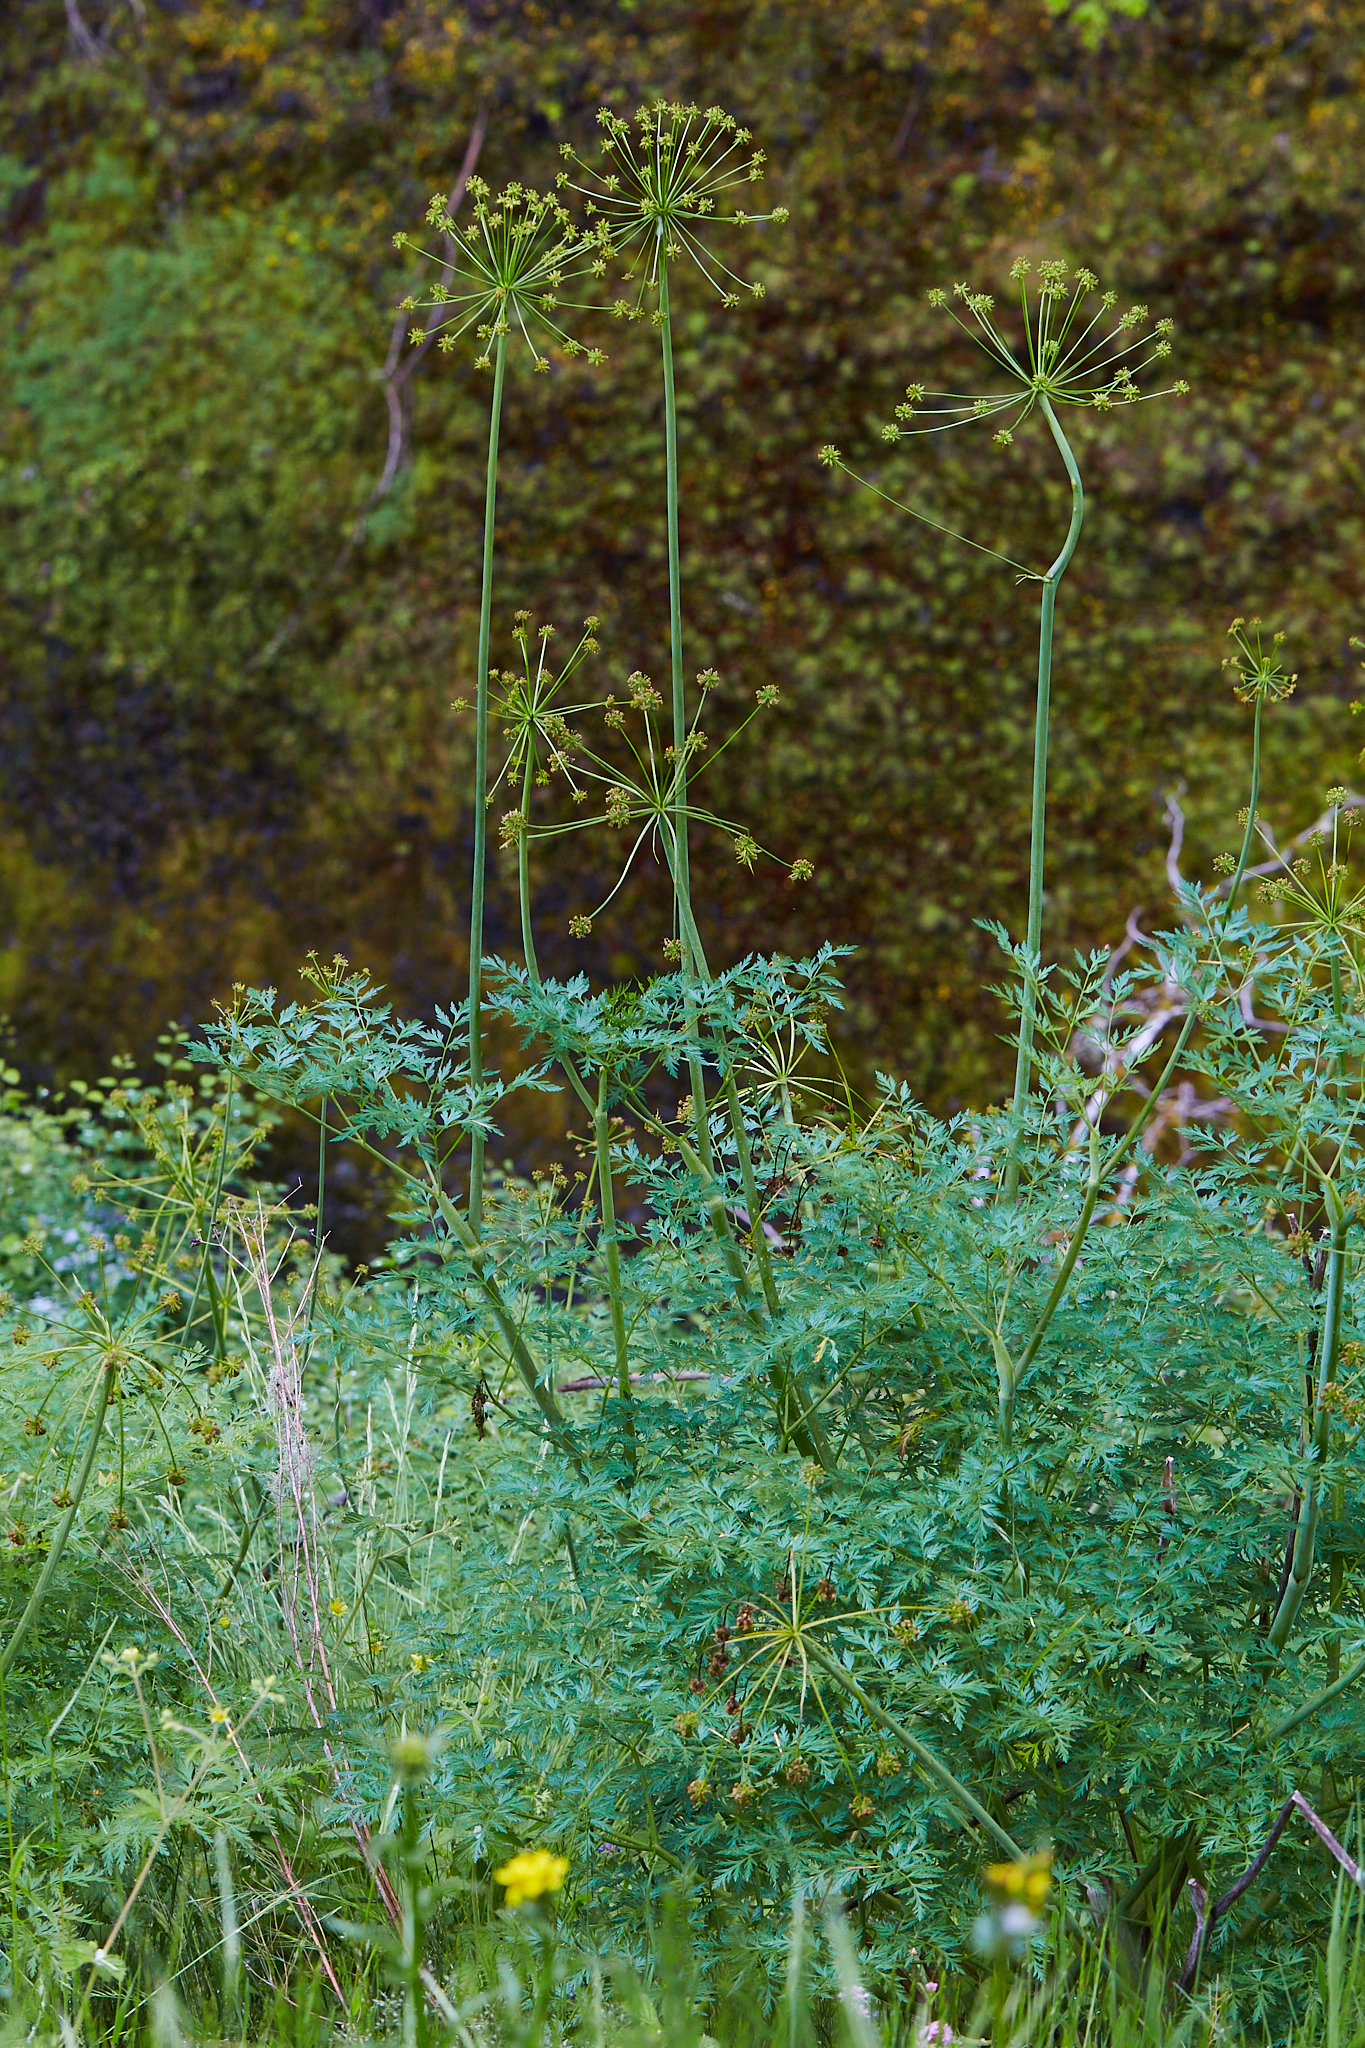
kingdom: Plantae
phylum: Tracheophyta
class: Magnoliopsida
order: Apiales
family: Apiaceae
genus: Lomatium
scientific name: Lomatium dissectum
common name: Lomatium
